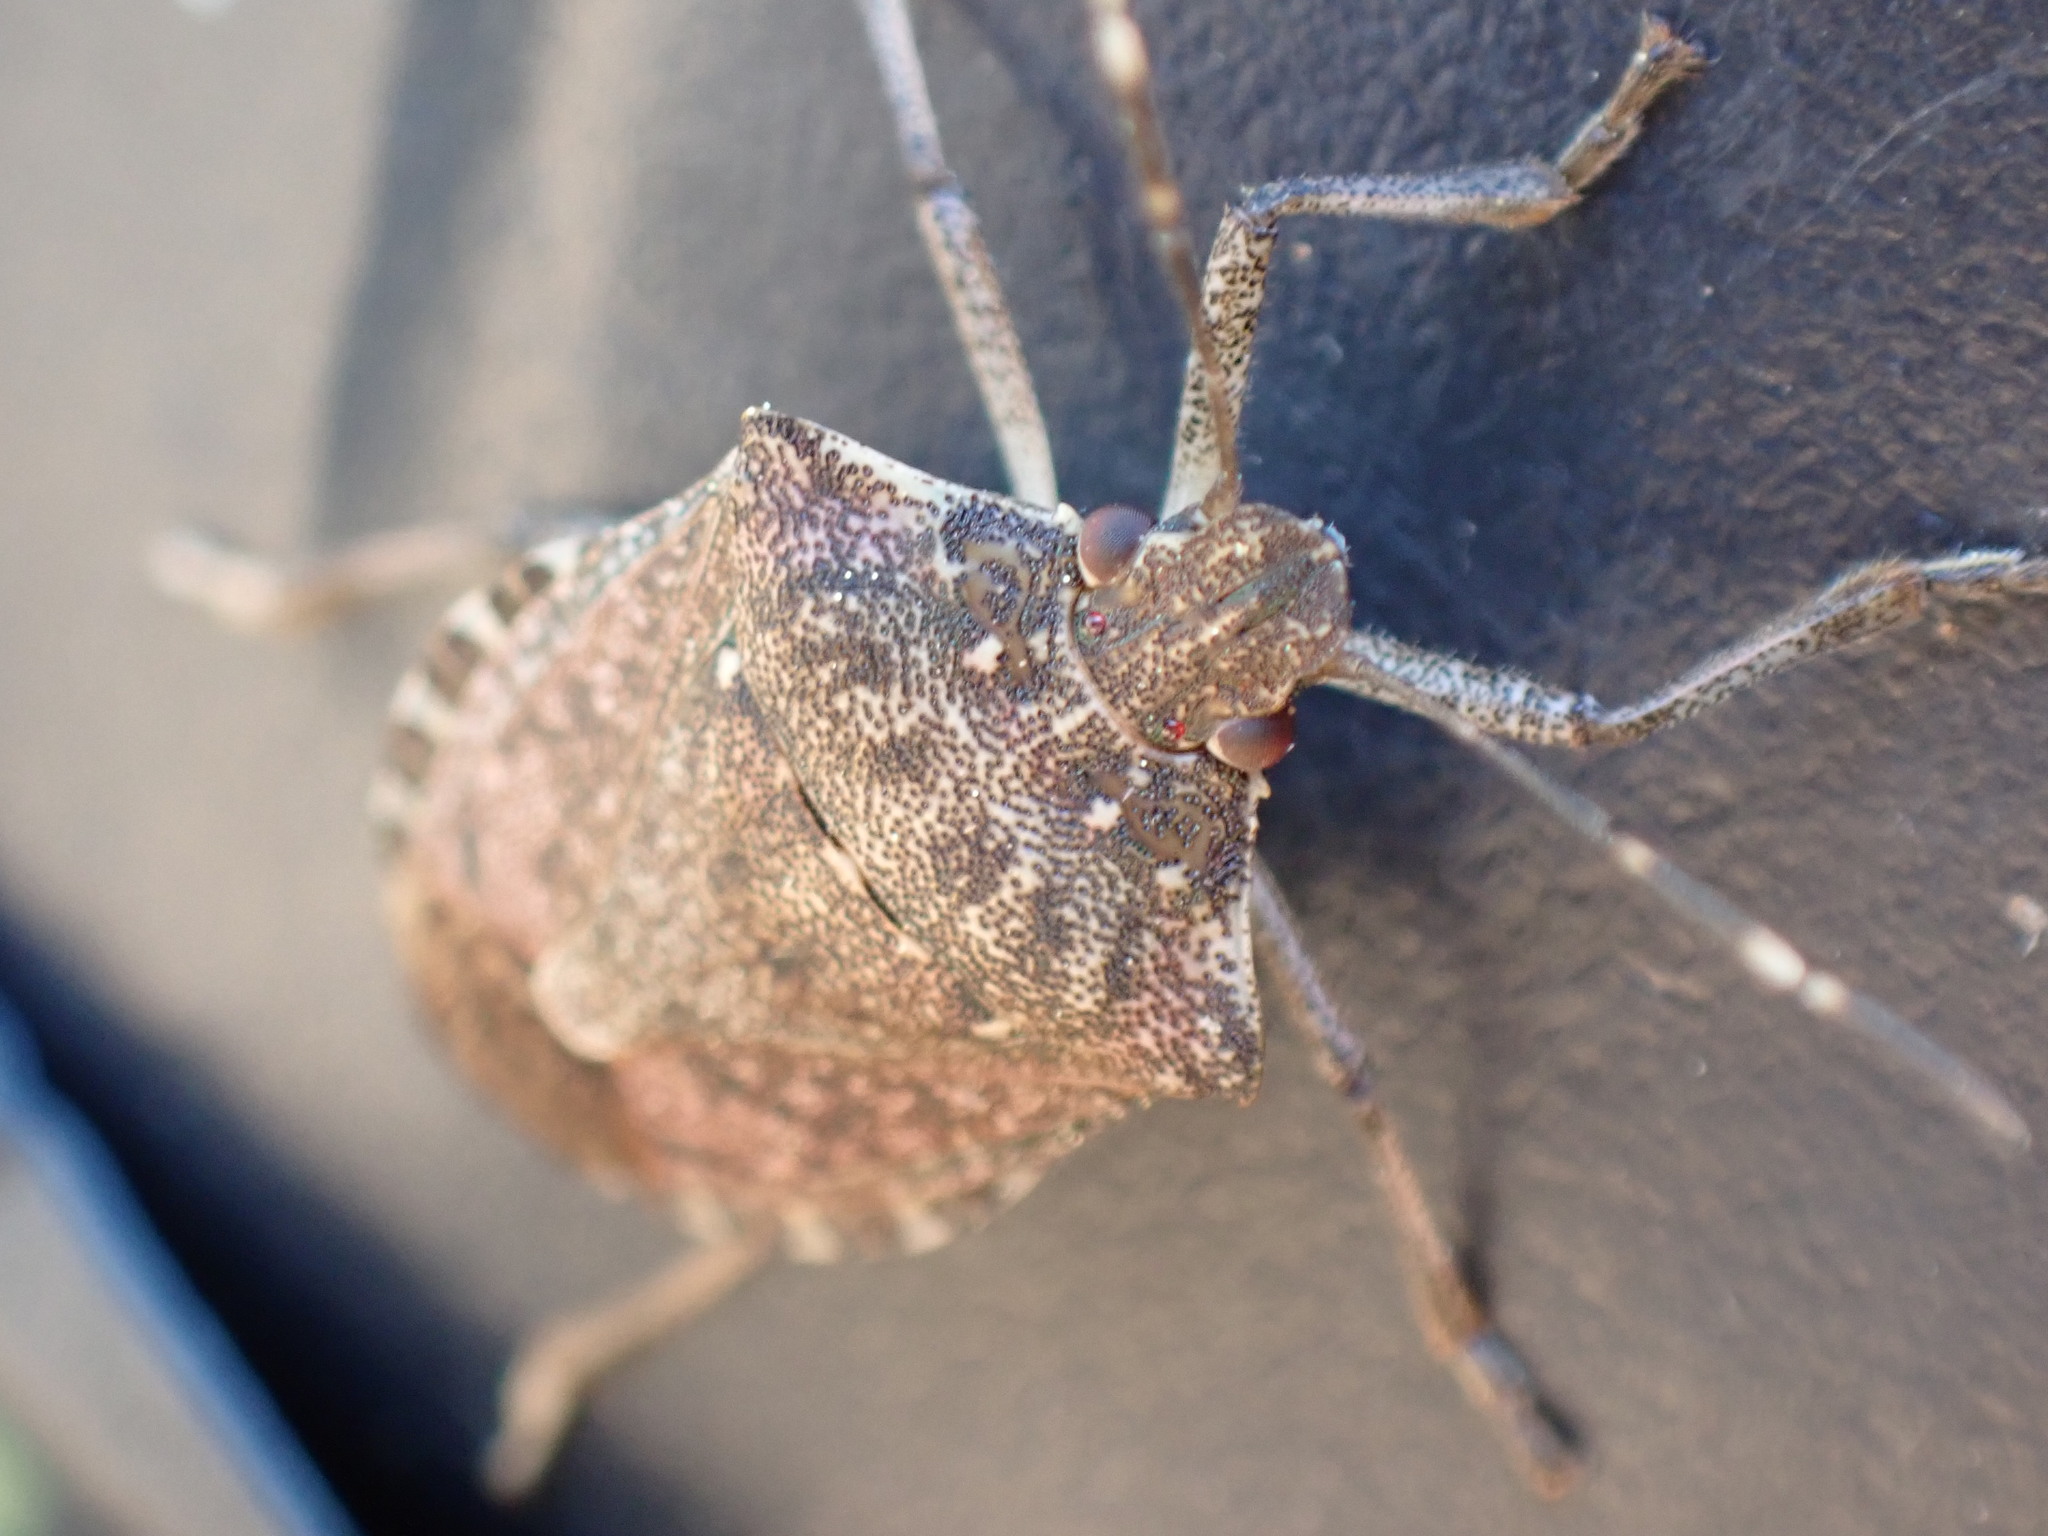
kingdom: Animalia
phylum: Arthropoda
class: Insecta
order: Hemiptera
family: Pentatomidae
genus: Halyomorpha
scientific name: Halyomorpha halys
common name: Brown marmorated stink bug
